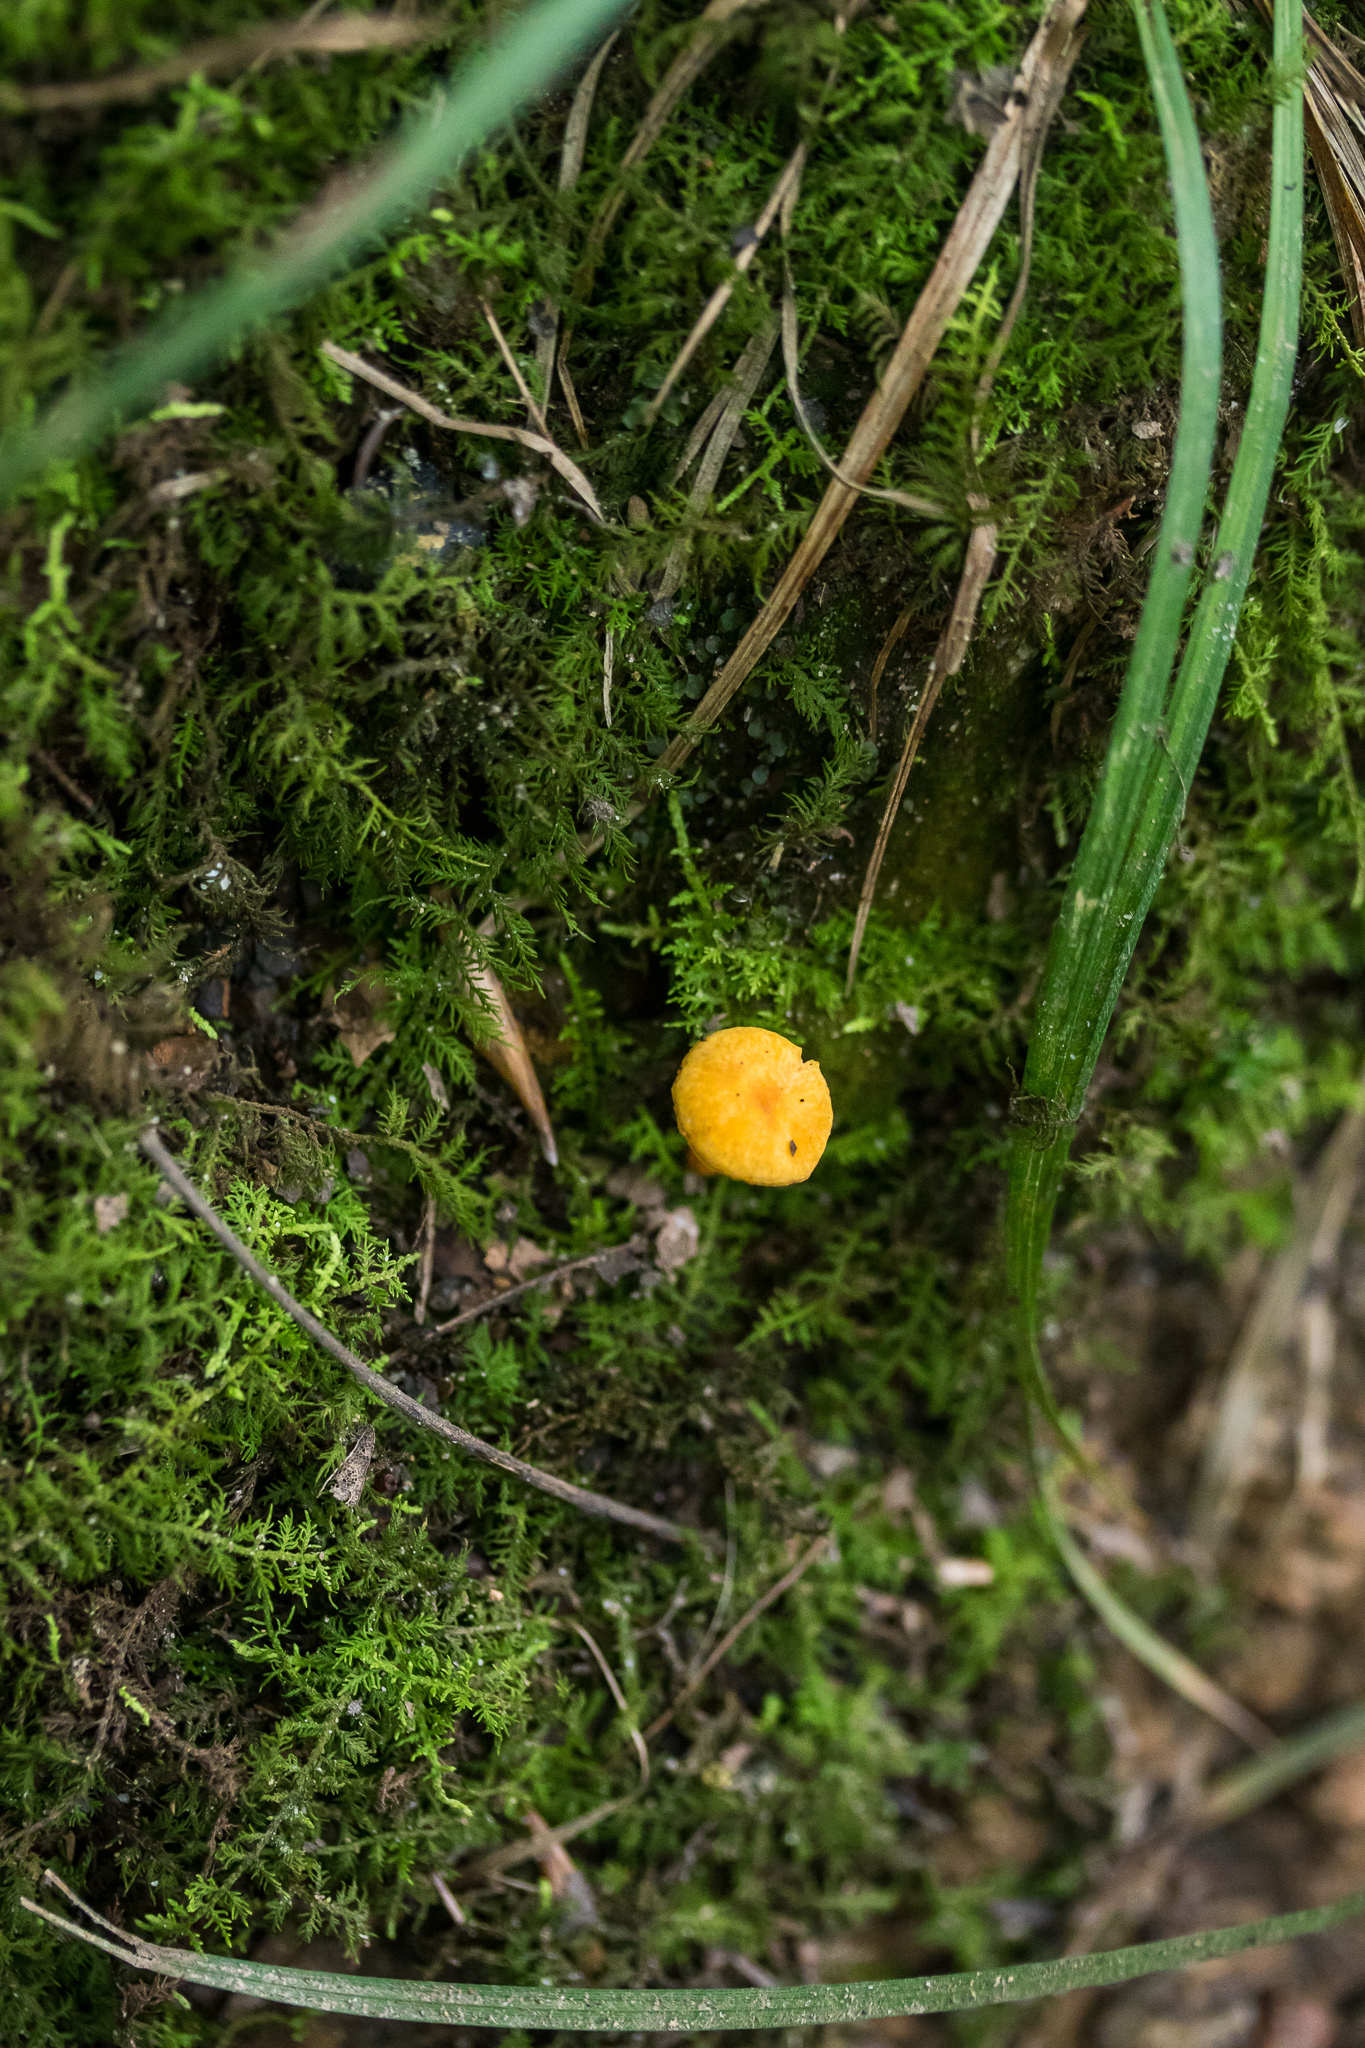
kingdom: Fungi
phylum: Basidiomycota
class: Agaricomycetes
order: Agaricales
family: Hygrophoraceae
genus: Gloioxanthomyces
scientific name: Gloioxanthomyces nitidus
